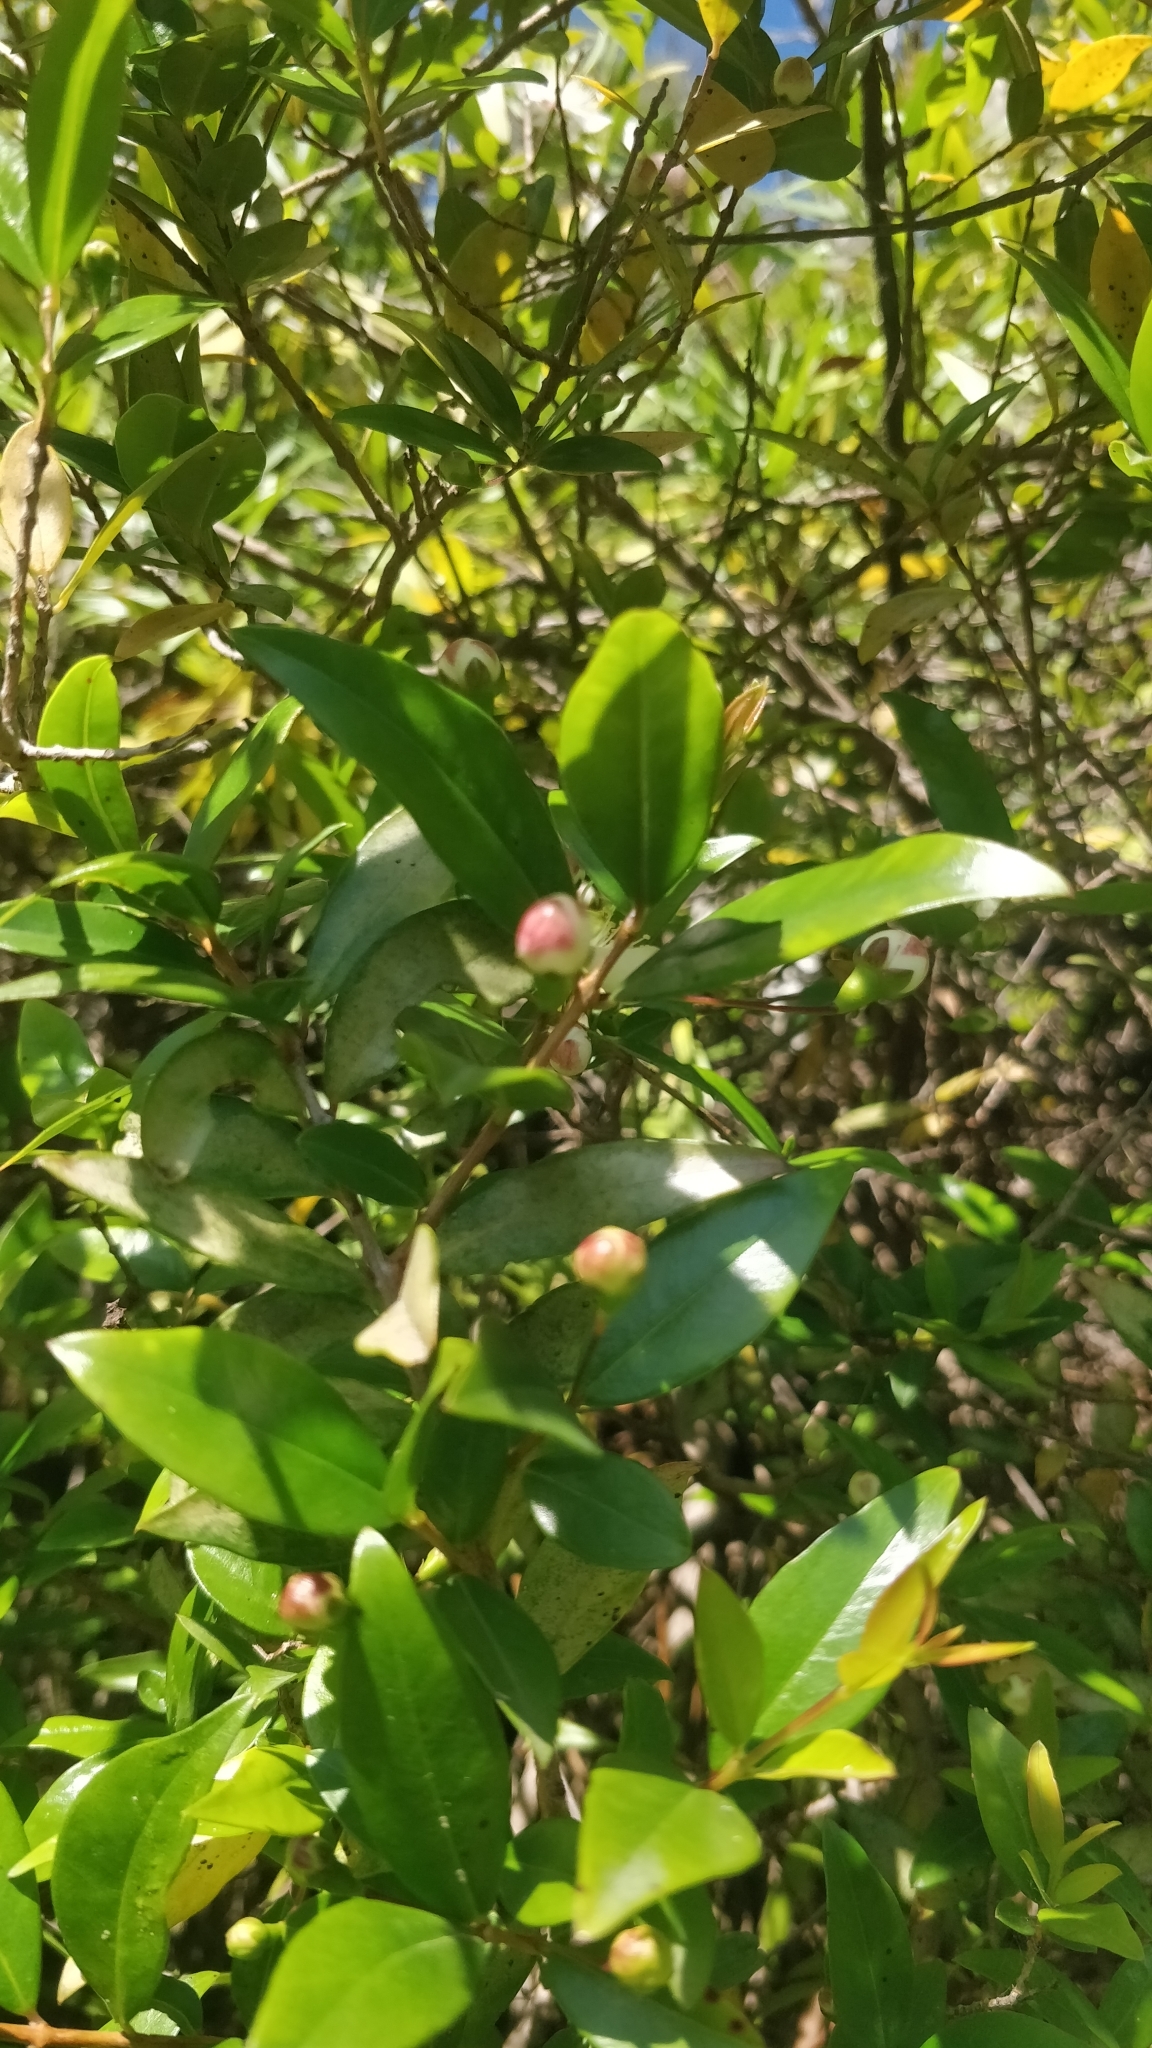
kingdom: Plantae
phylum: Tracheophyta
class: Magnoliopsida
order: Myrtales
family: Myrtaceae
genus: Myrtus
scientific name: Myrtus communis
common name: Myrtle
